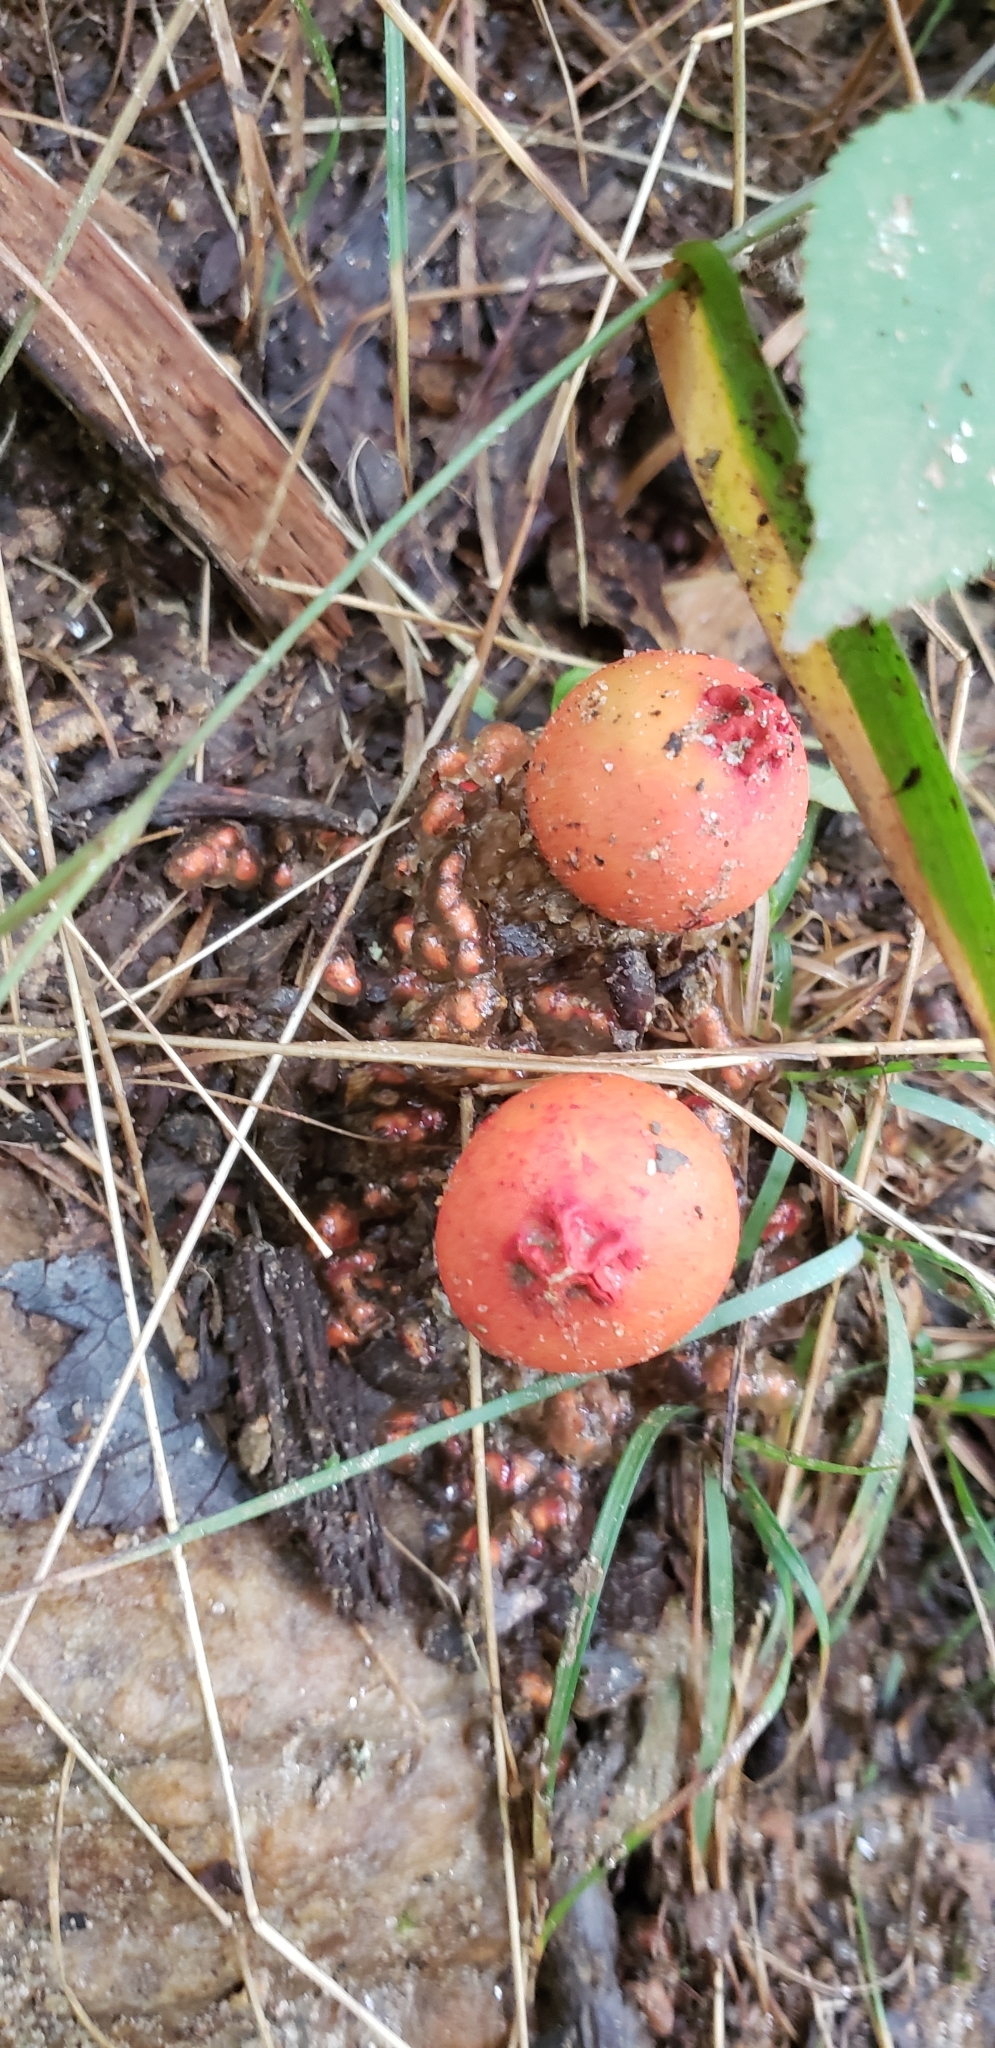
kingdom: Fungi
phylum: Basidiomycota
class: Agaricomycetes
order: Boletales
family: Calostomataceae
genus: Calostoma
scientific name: Calostoma cinnabarinum
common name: Stalked puffball-in-aspic
